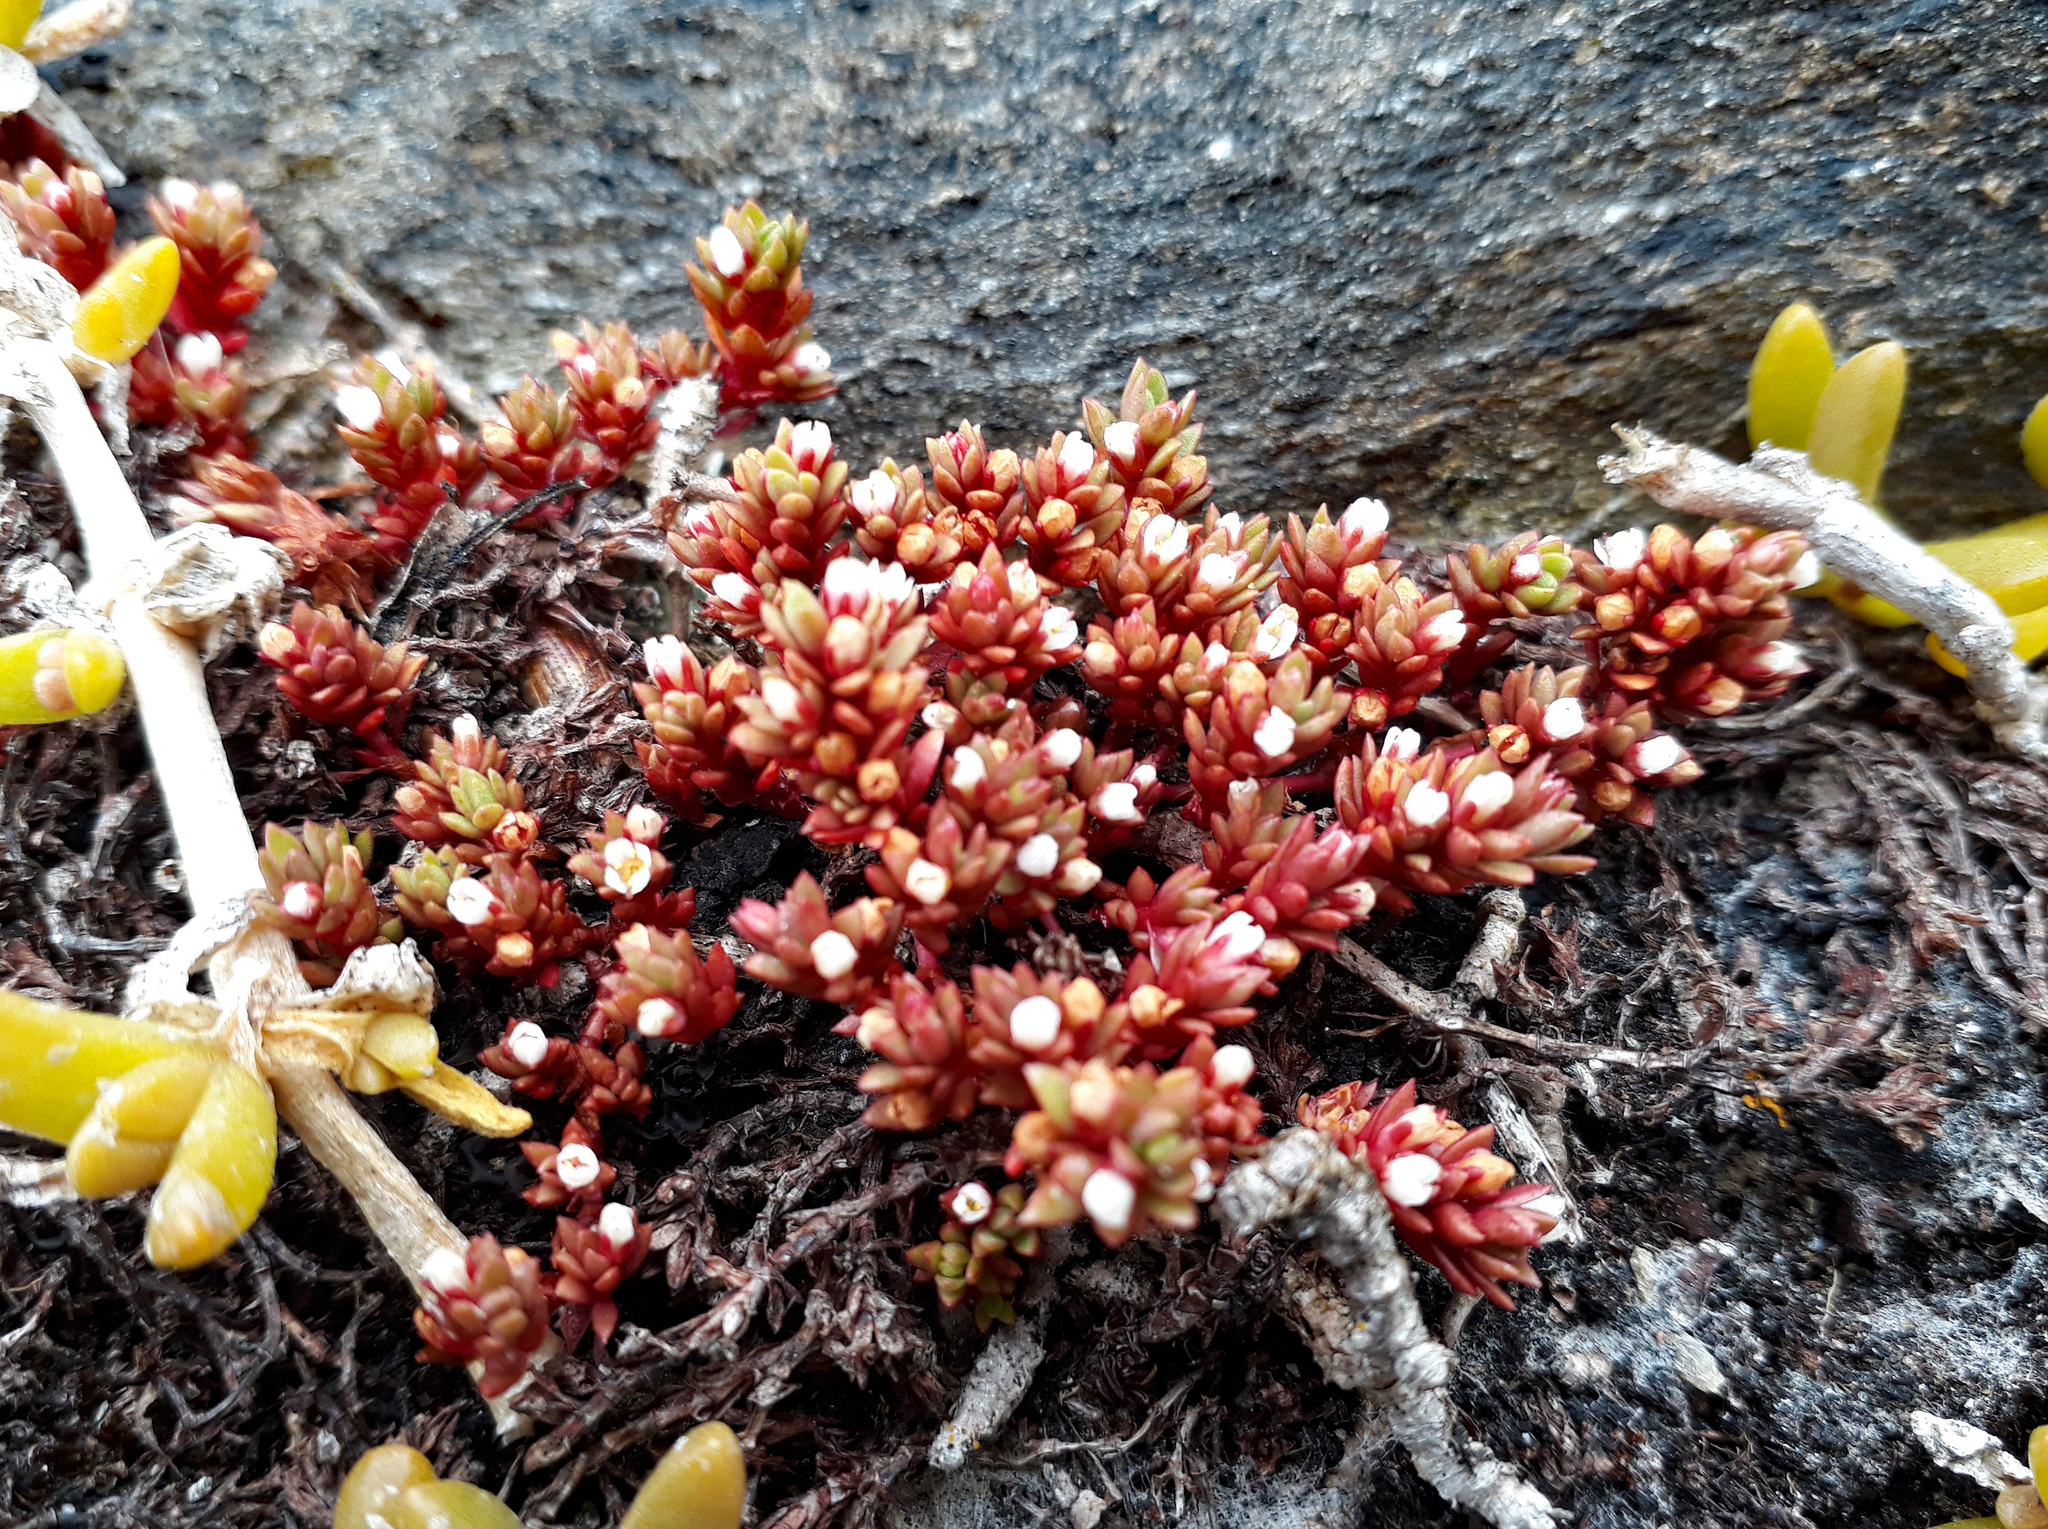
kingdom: Plantae
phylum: Tracheophyta
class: Magnoliopsida
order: Saxifragales
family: Crassulaceae
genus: Crassula
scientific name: Crassula moschata
